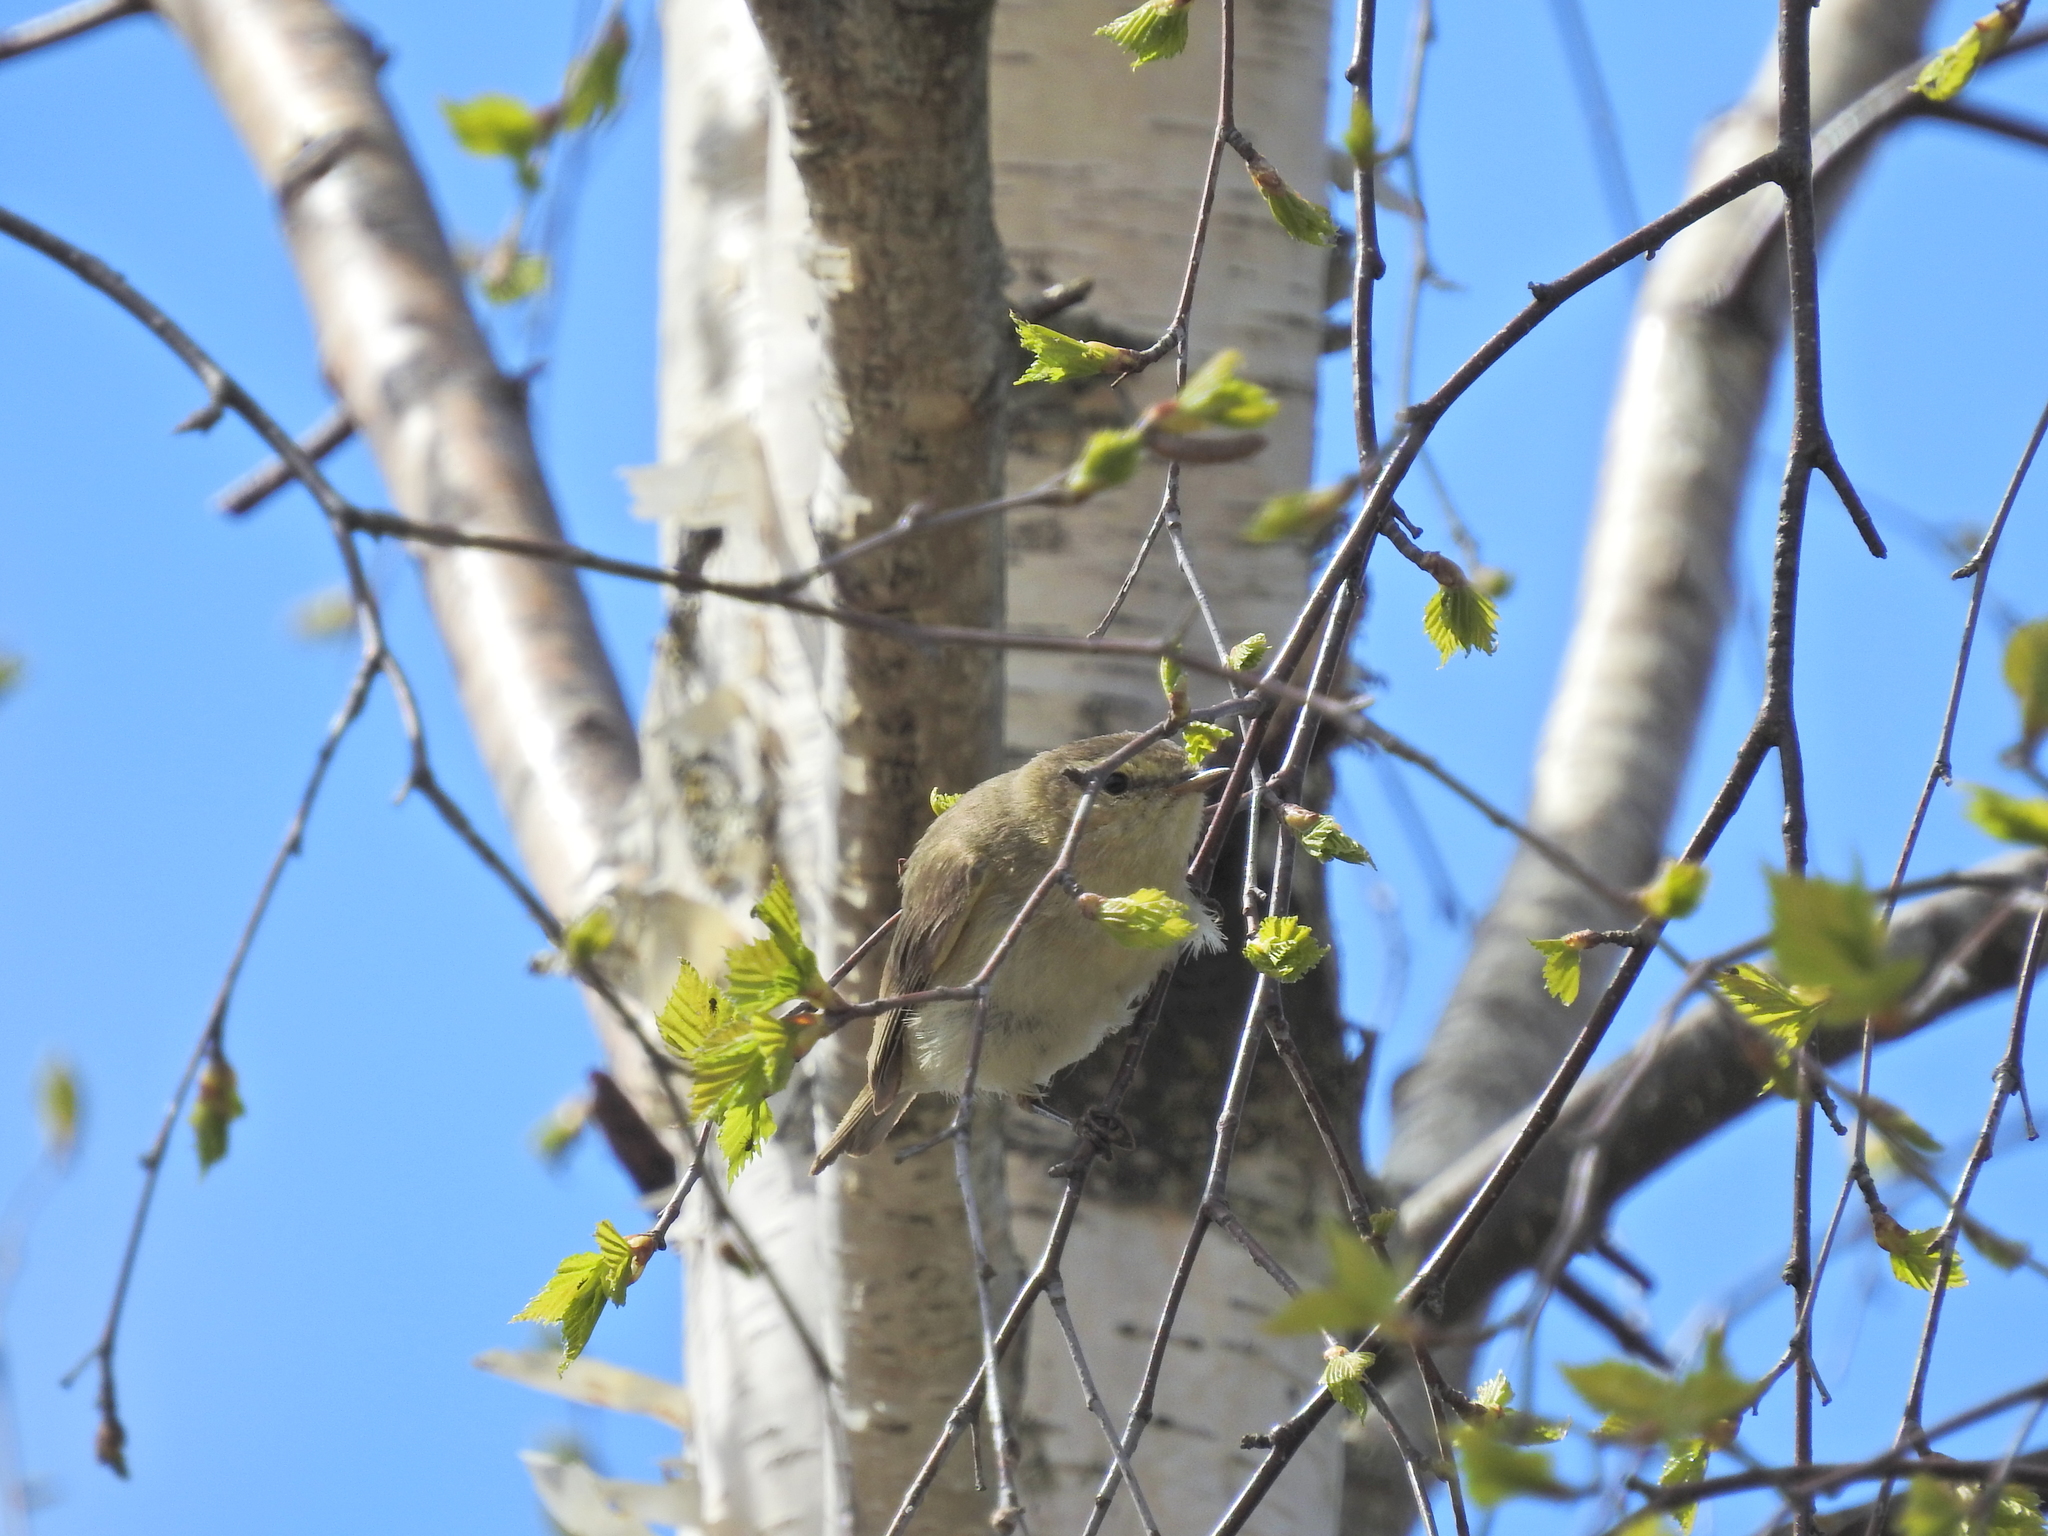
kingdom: Animalia
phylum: Chordata
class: Aves
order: Passeriformes
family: Phylloscopidae
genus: Phylloscopus
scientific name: Phylloscopus collybita
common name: Common chiffchaff
